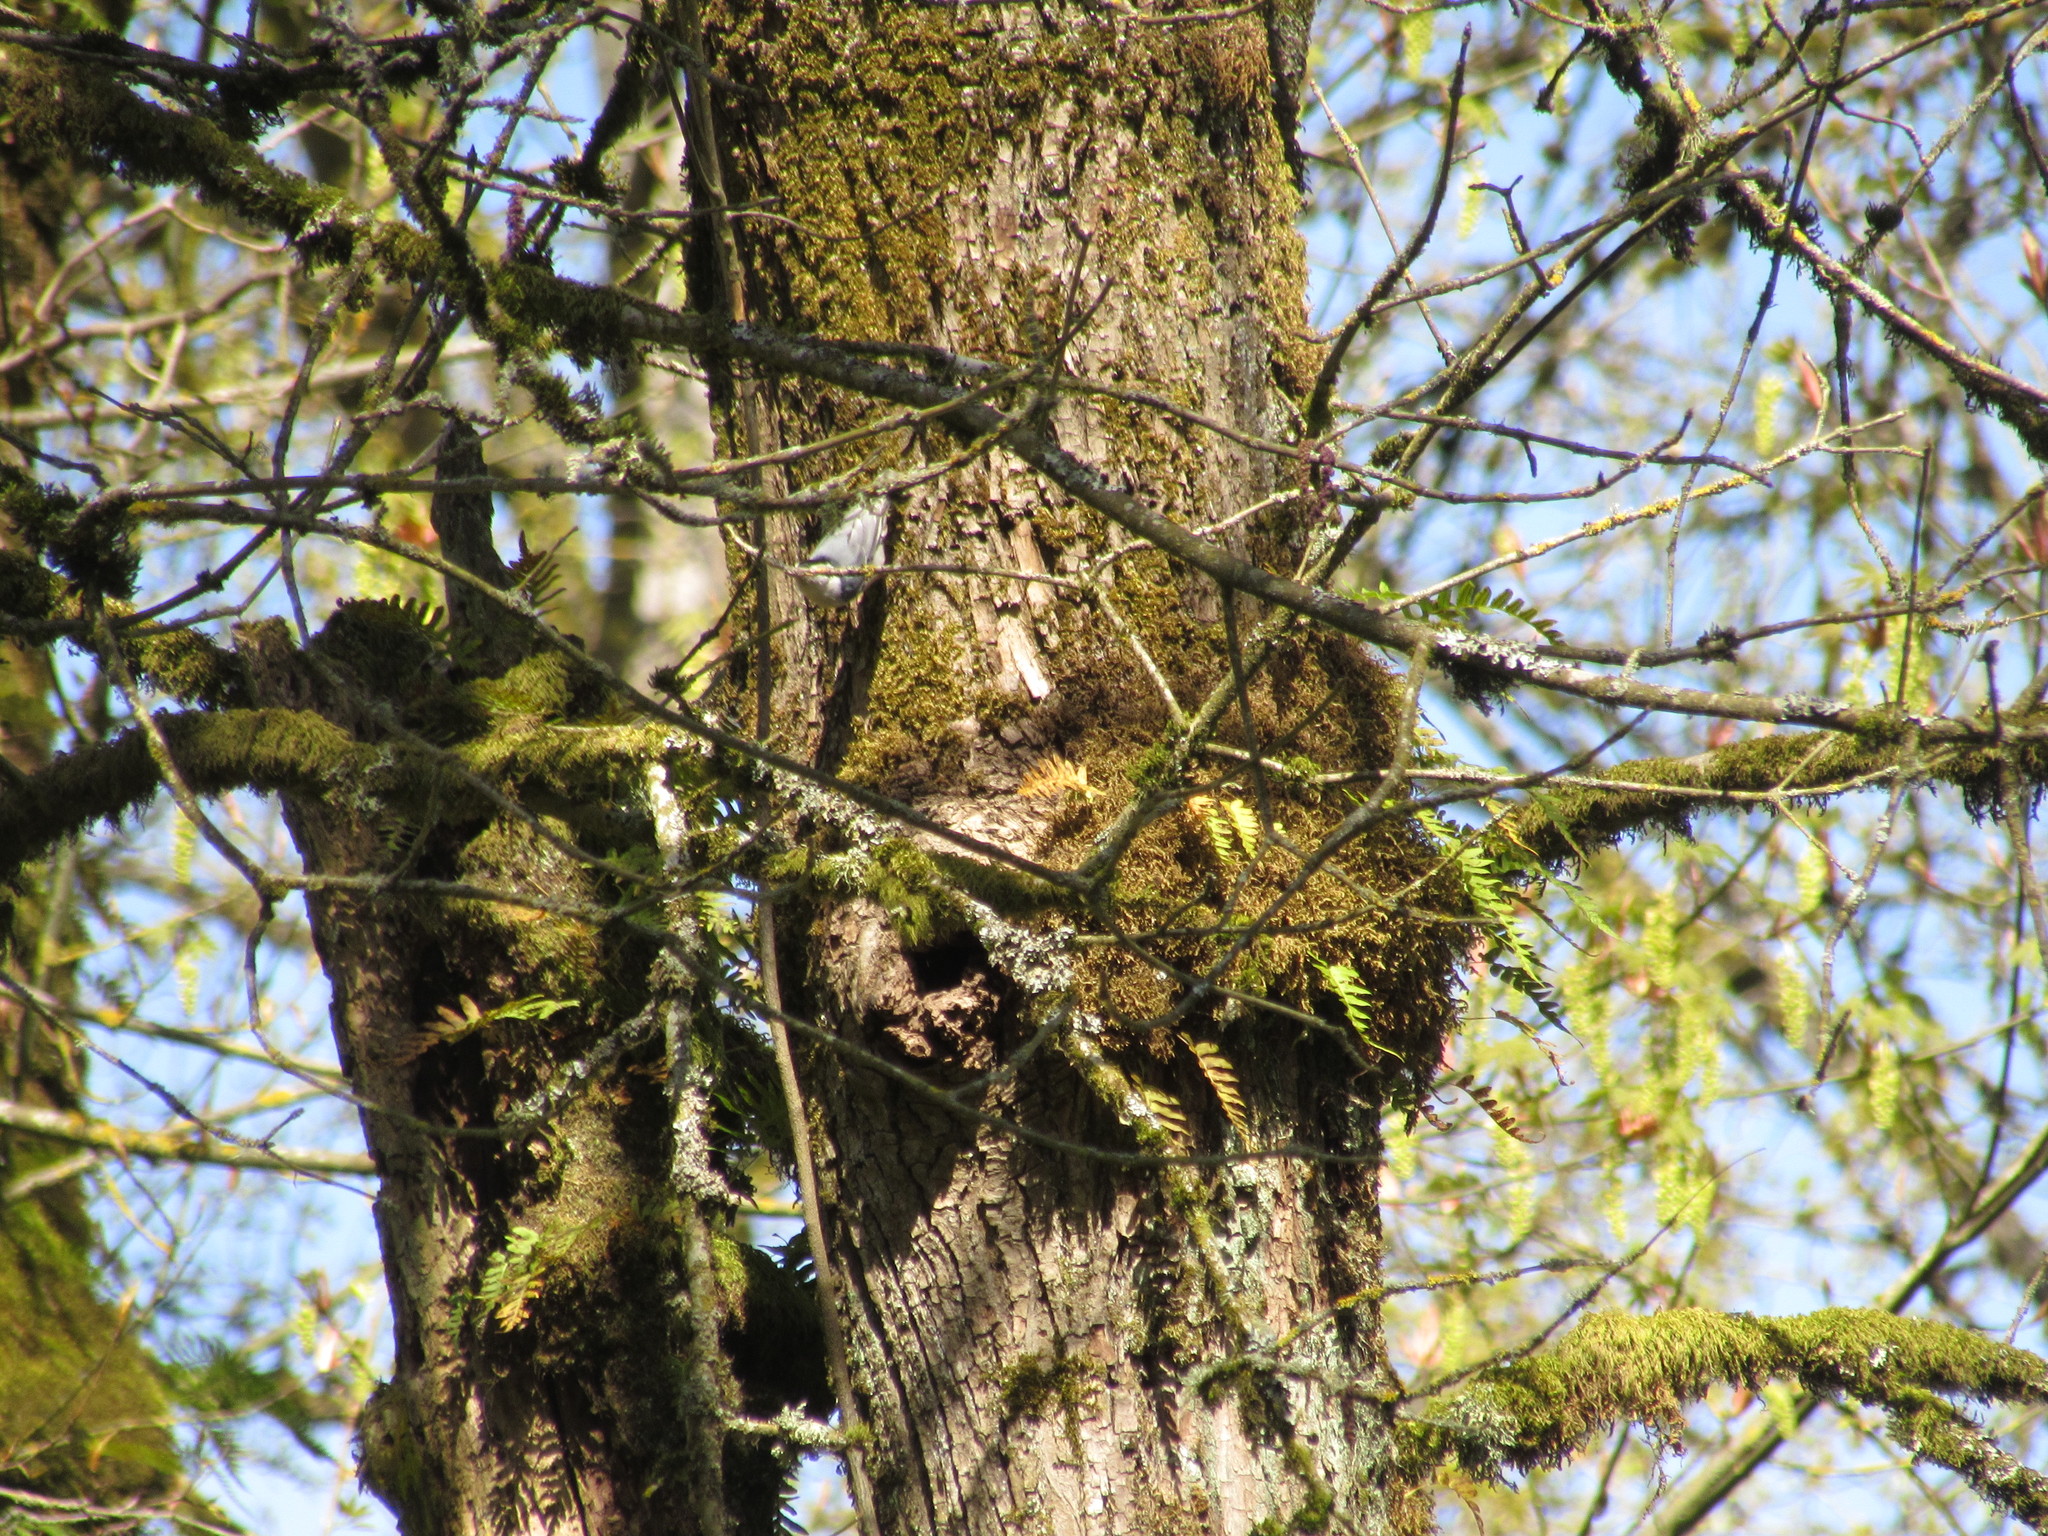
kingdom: Animalia
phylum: Chordata
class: Aves
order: Passeriformes
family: Sittidae
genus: Sitta
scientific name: Sitta carolinensis
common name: White-breasted nuthatch
